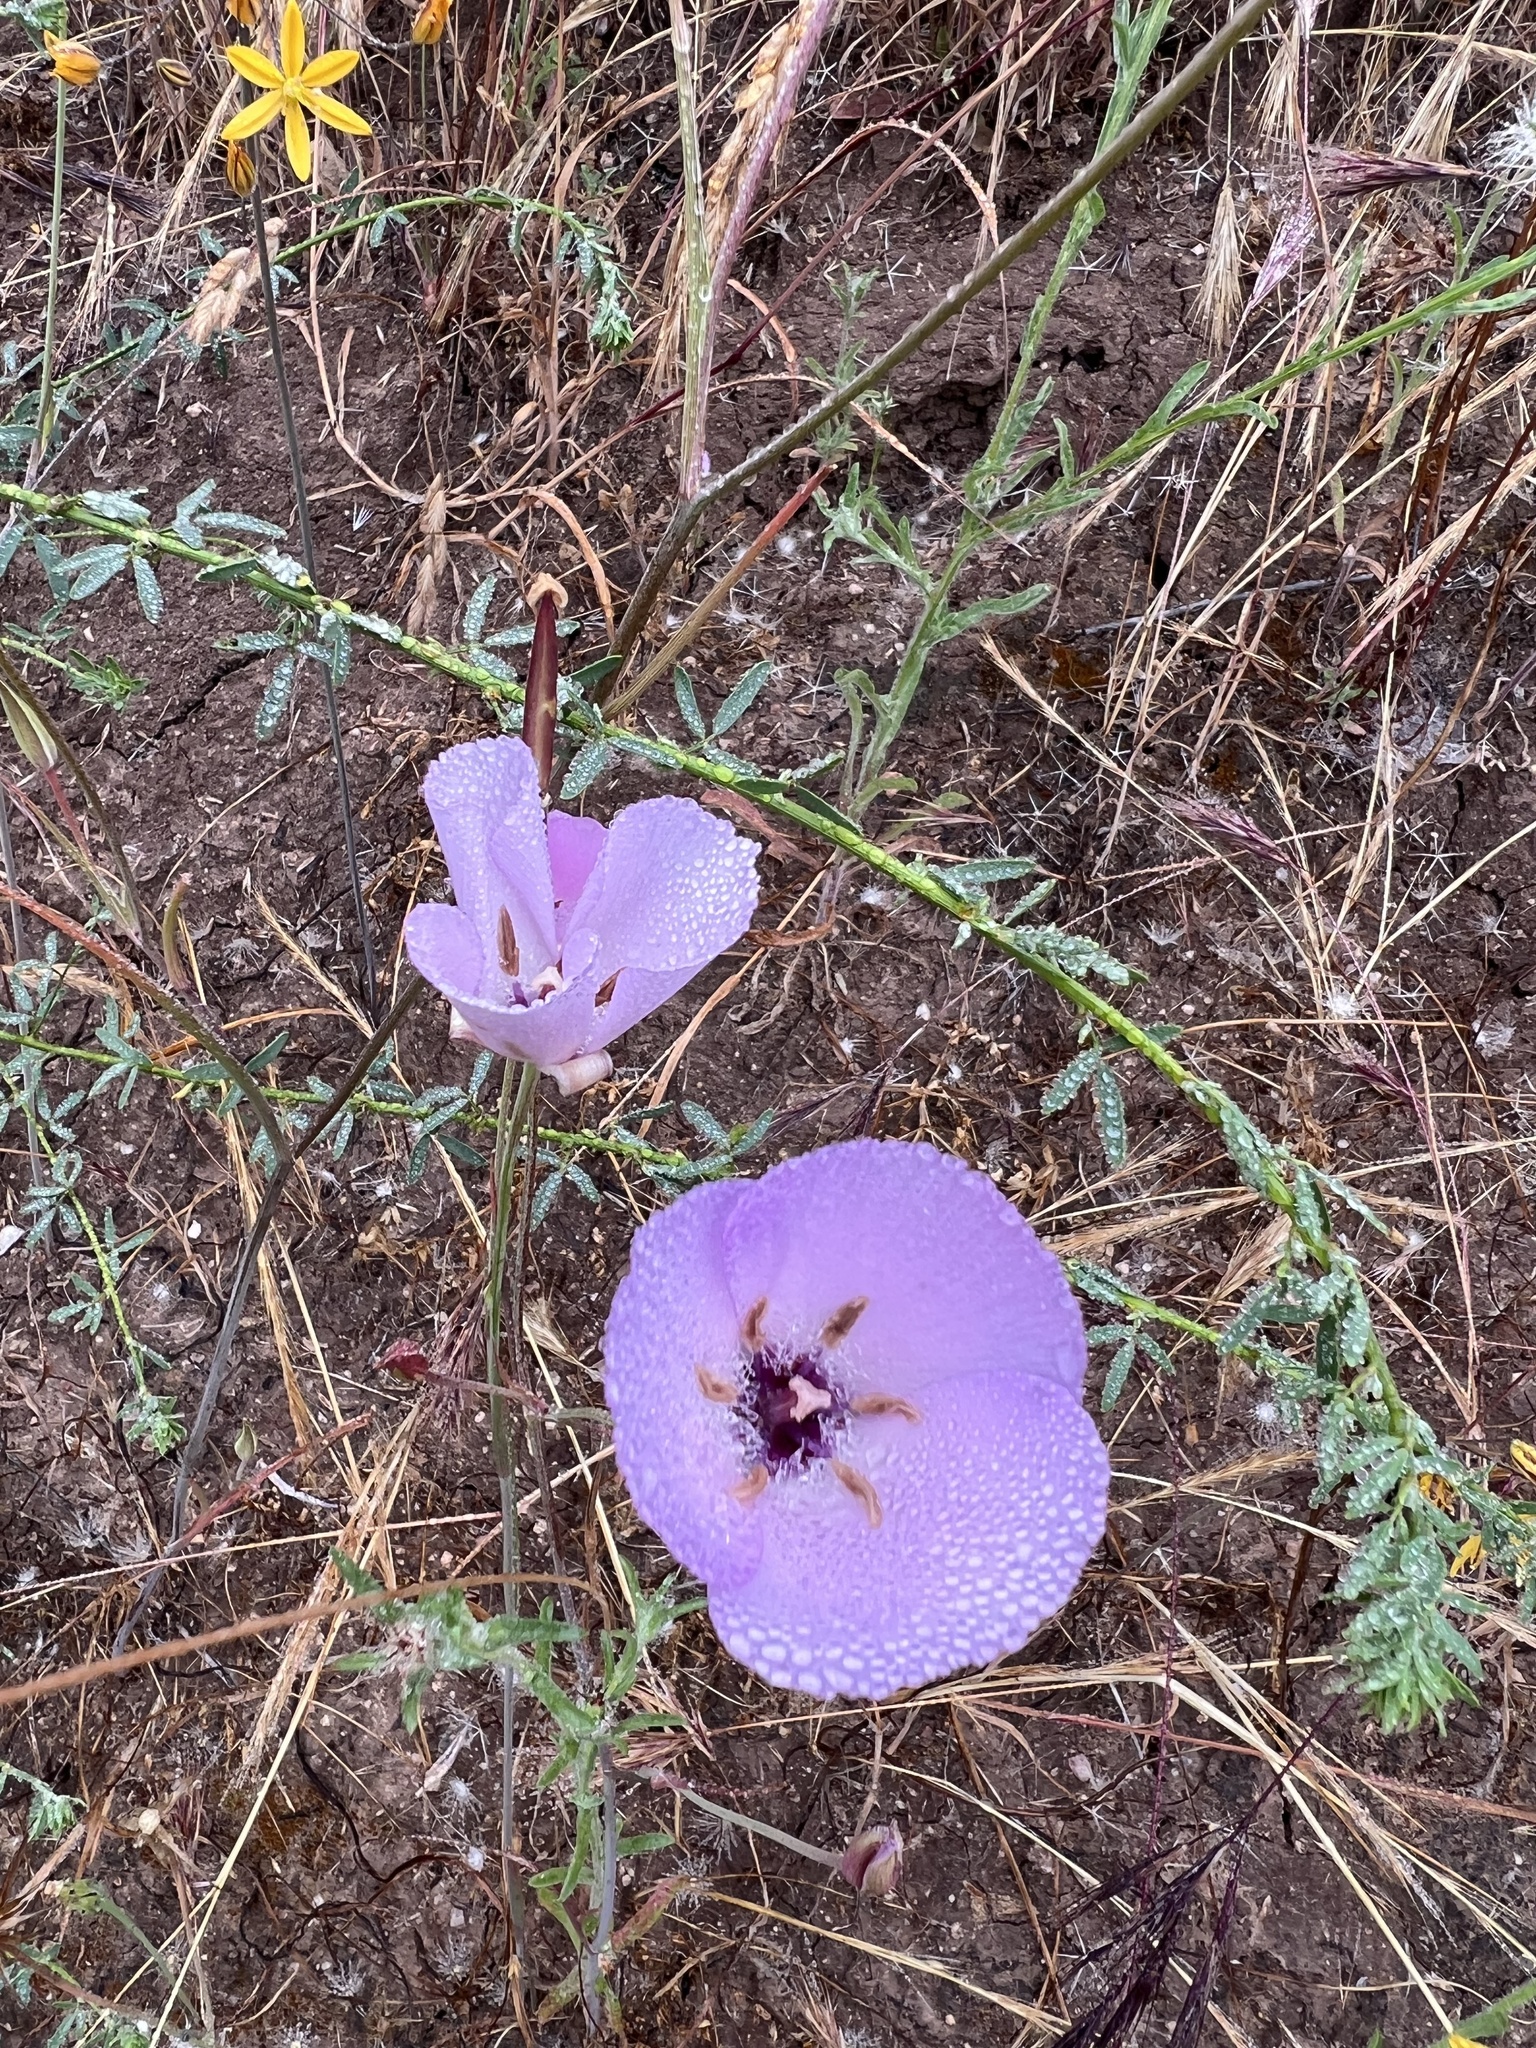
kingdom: Plantae
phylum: Tracheophyta
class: Liliopsida
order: Liliales
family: Liliaceae
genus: Calochortus
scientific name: Calochortus splendens
